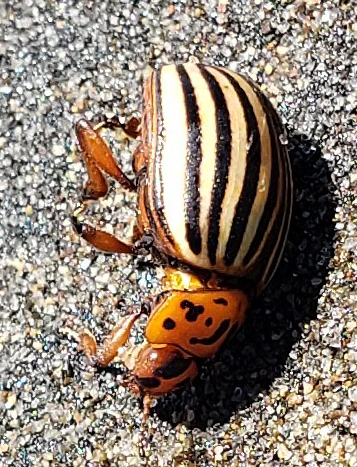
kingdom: Animalia
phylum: Arthropoda
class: Insecta
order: Coleoptera
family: Chrysomelidae
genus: Leptinotarsa
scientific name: Leptinotarsa decemlineata
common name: Colorado potato beetle
